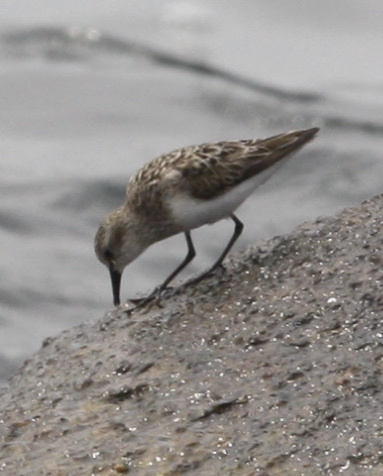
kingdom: Animalia
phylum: Chordata
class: Aves
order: Charadriiformes
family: Scolopacidae
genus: Calidris
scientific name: Calidris pusilla
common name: Semipalmated sandpiper
